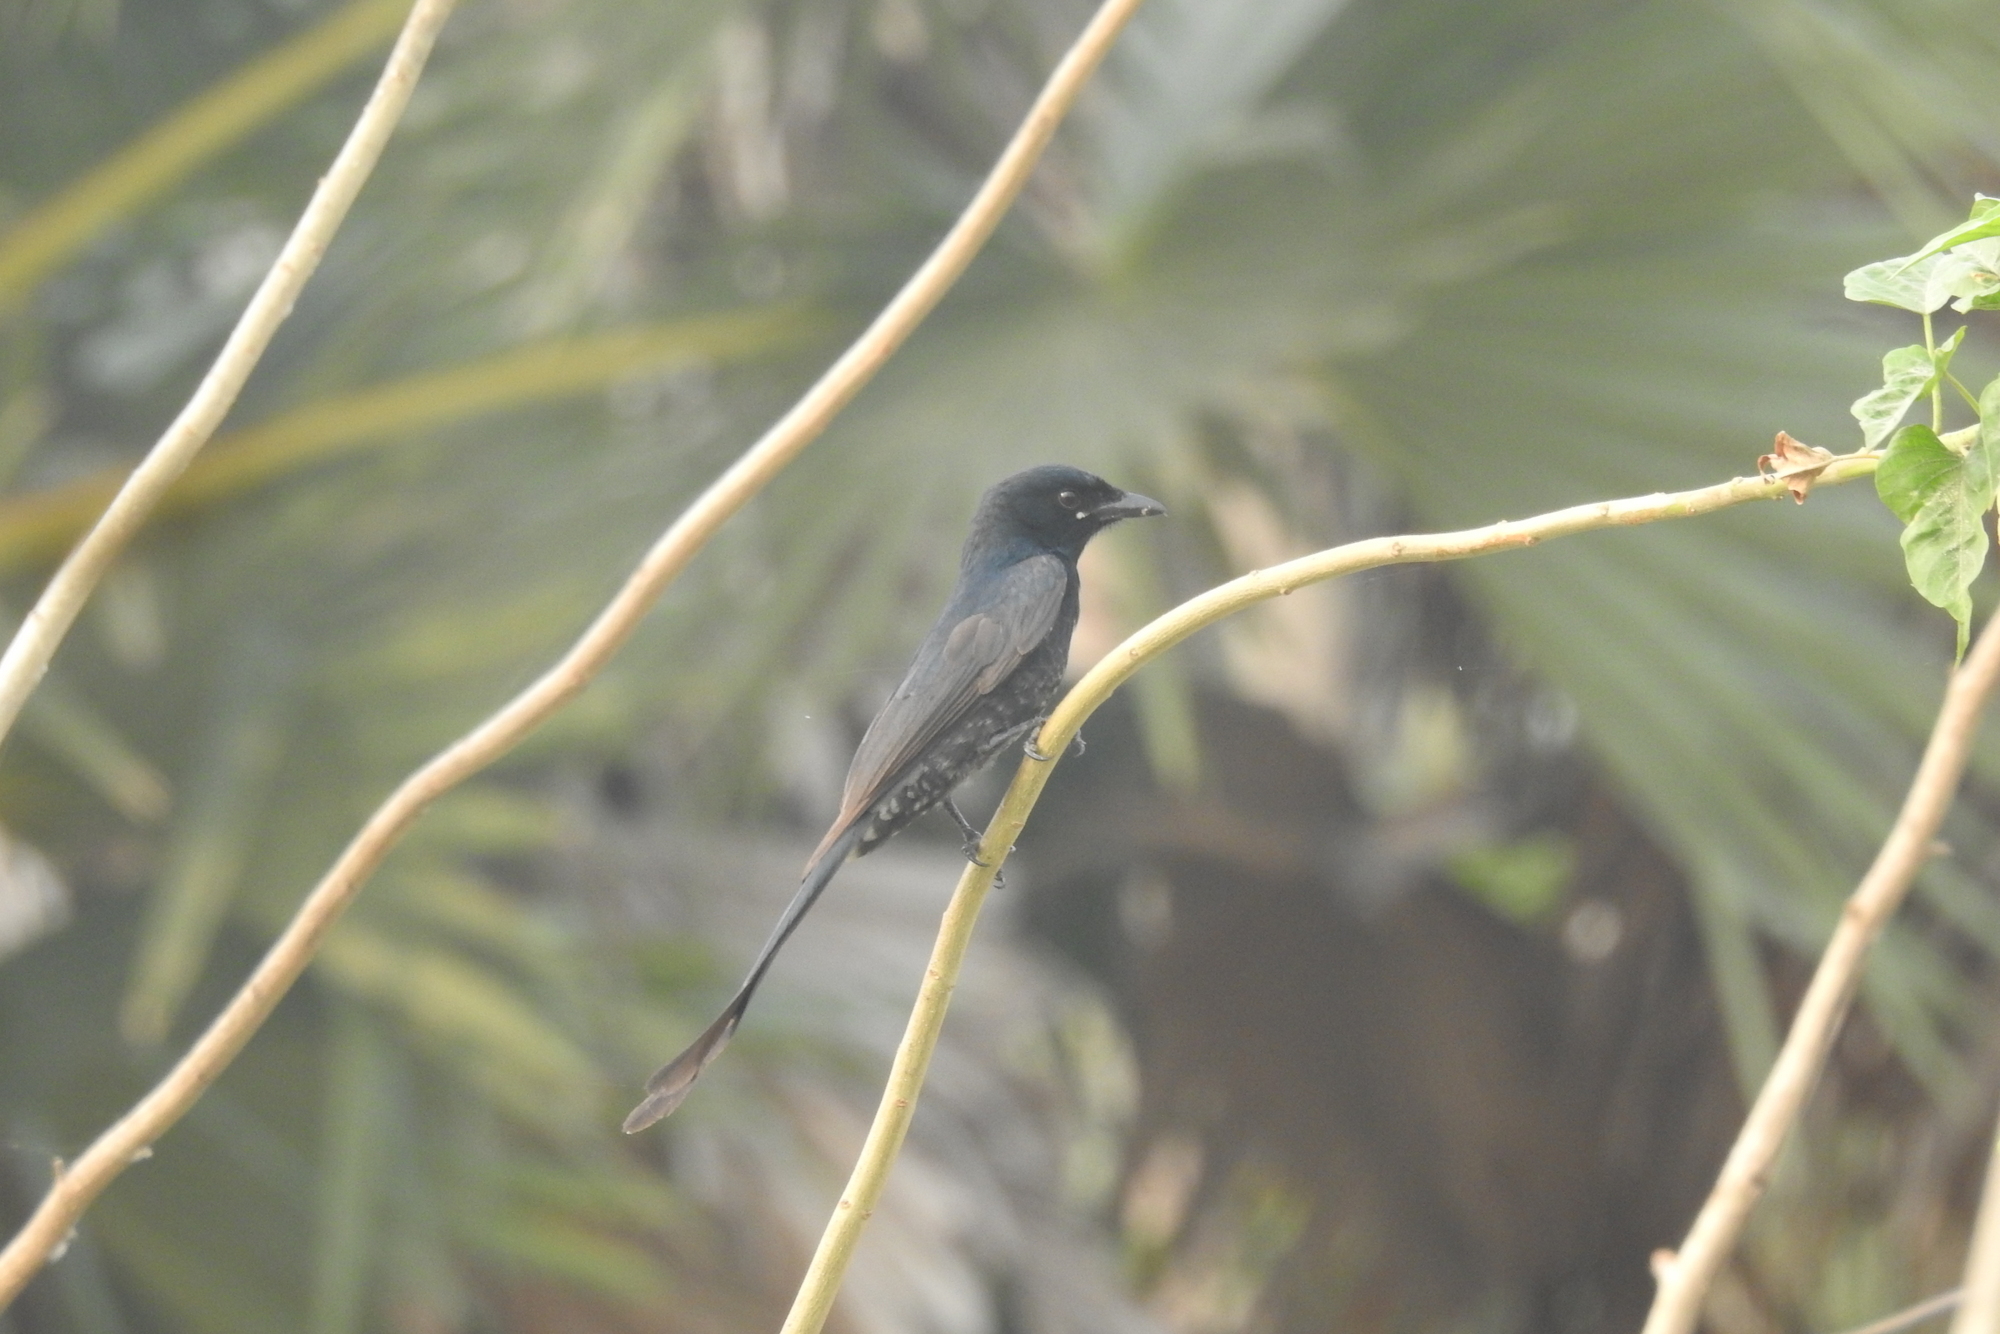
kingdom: Animalia
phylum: Chordata
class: Aves
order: Passeriformes
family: Dicruridae
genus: Dicrurus
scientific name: Dicrurus macrocercus
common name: Black drongo
